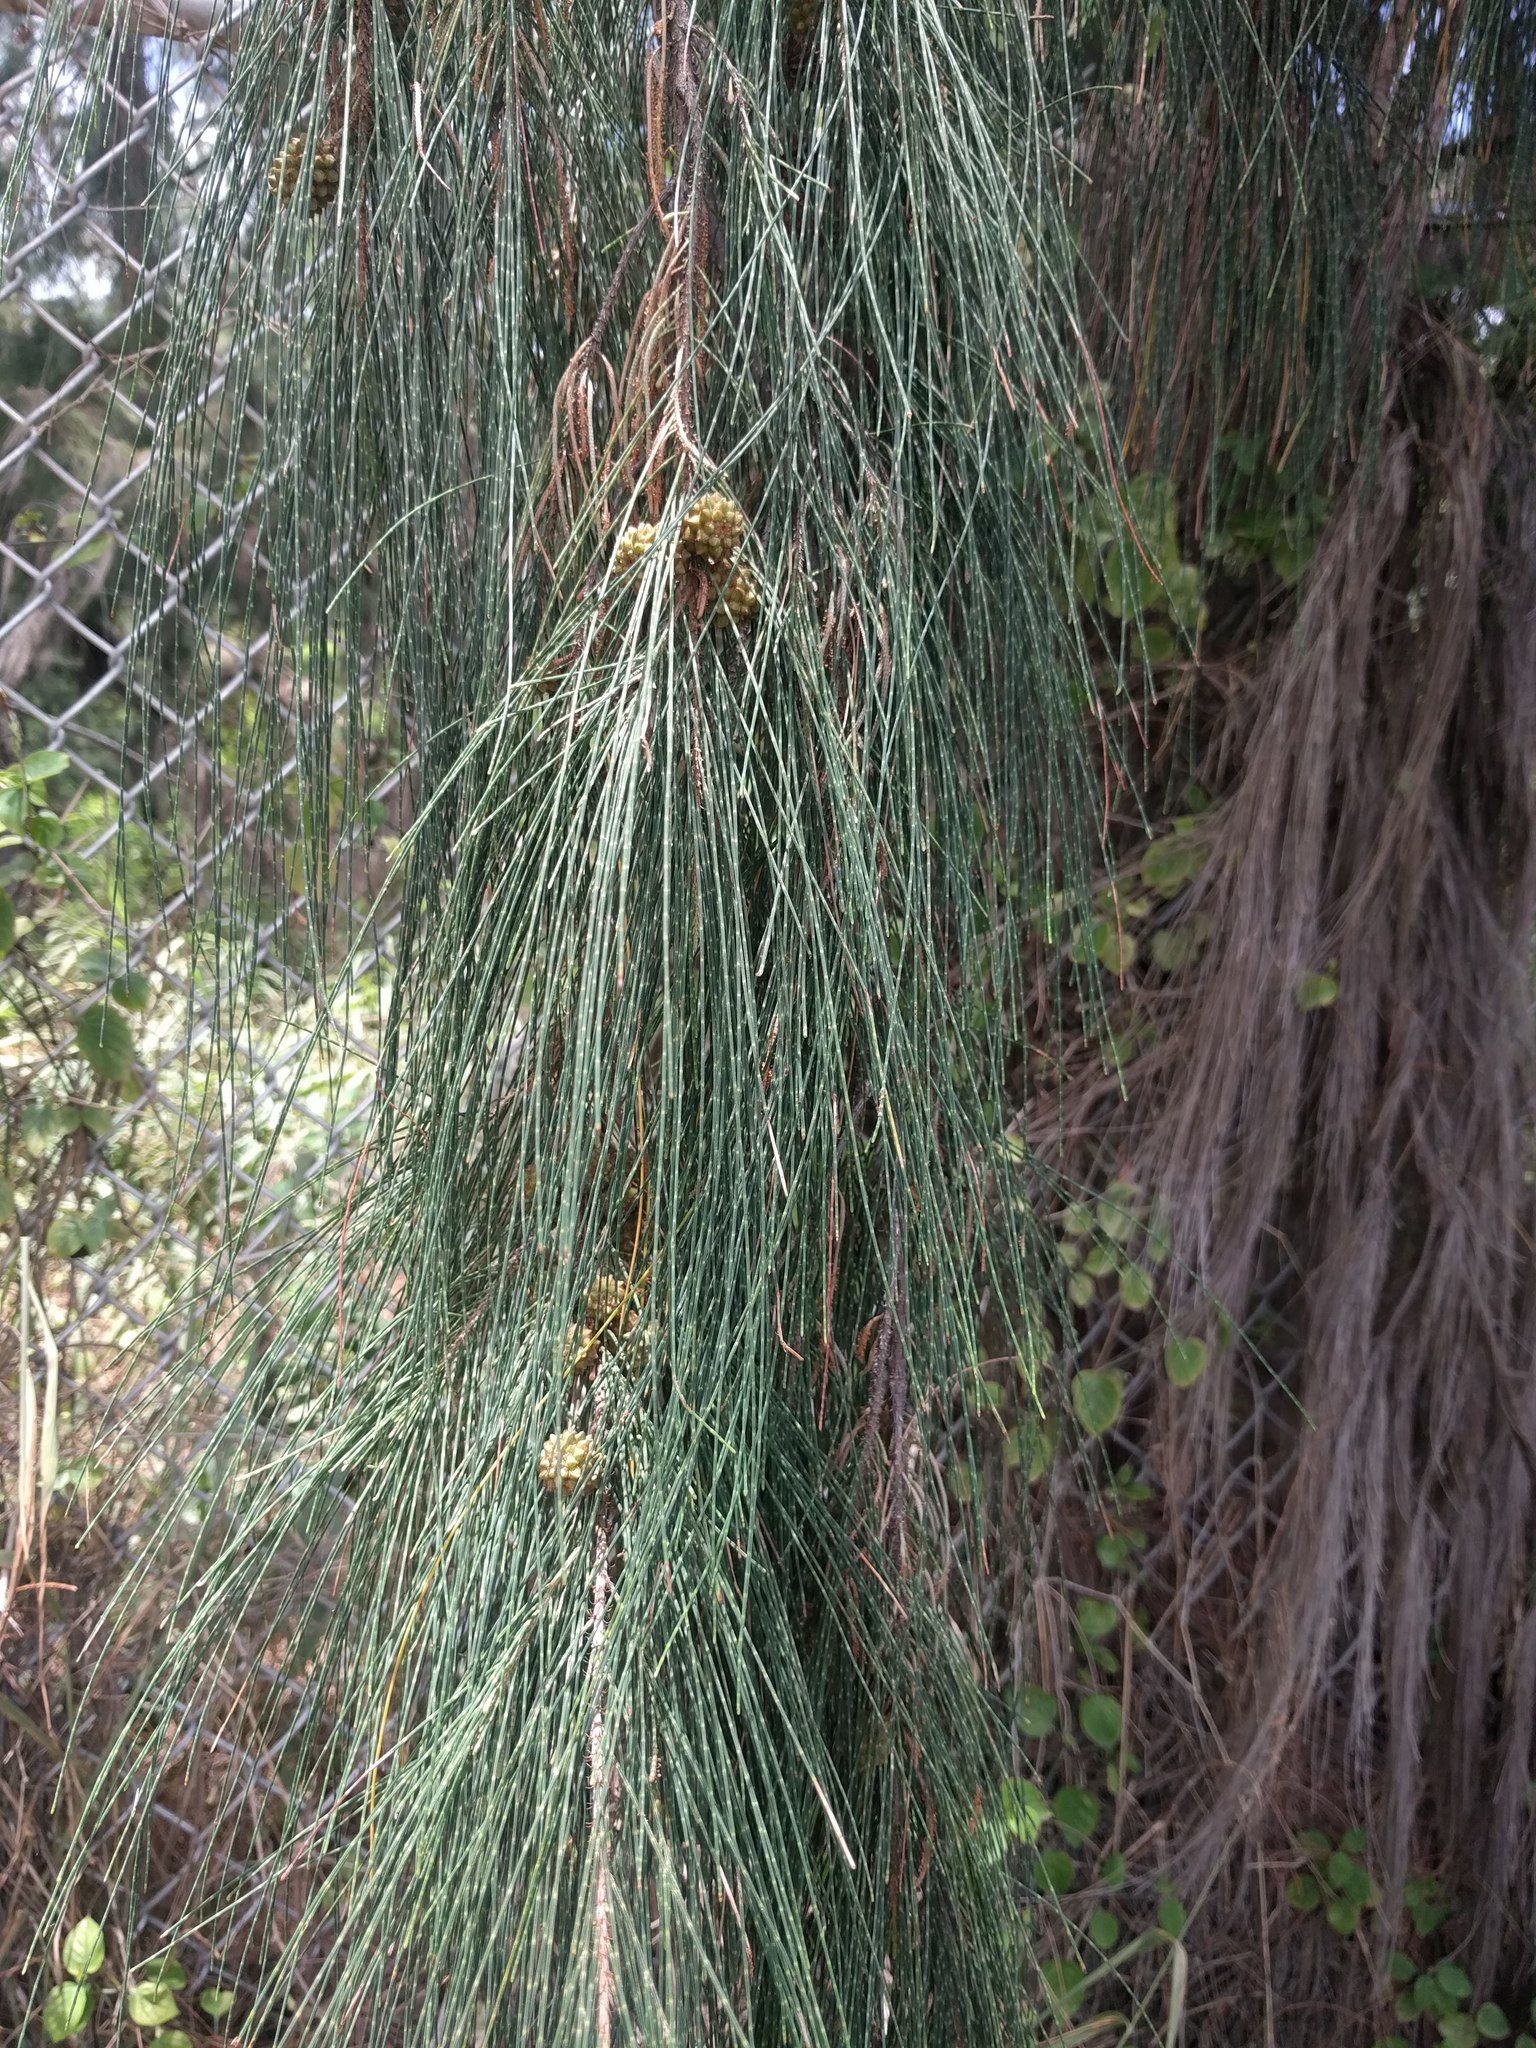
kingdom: Plantae
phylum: Tracheophyta
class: Magnoliopsida
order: Fagales
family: Casuarinaceae
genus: Casuarina
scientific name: Casuarina equisetifolia
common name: Beach sheoak
